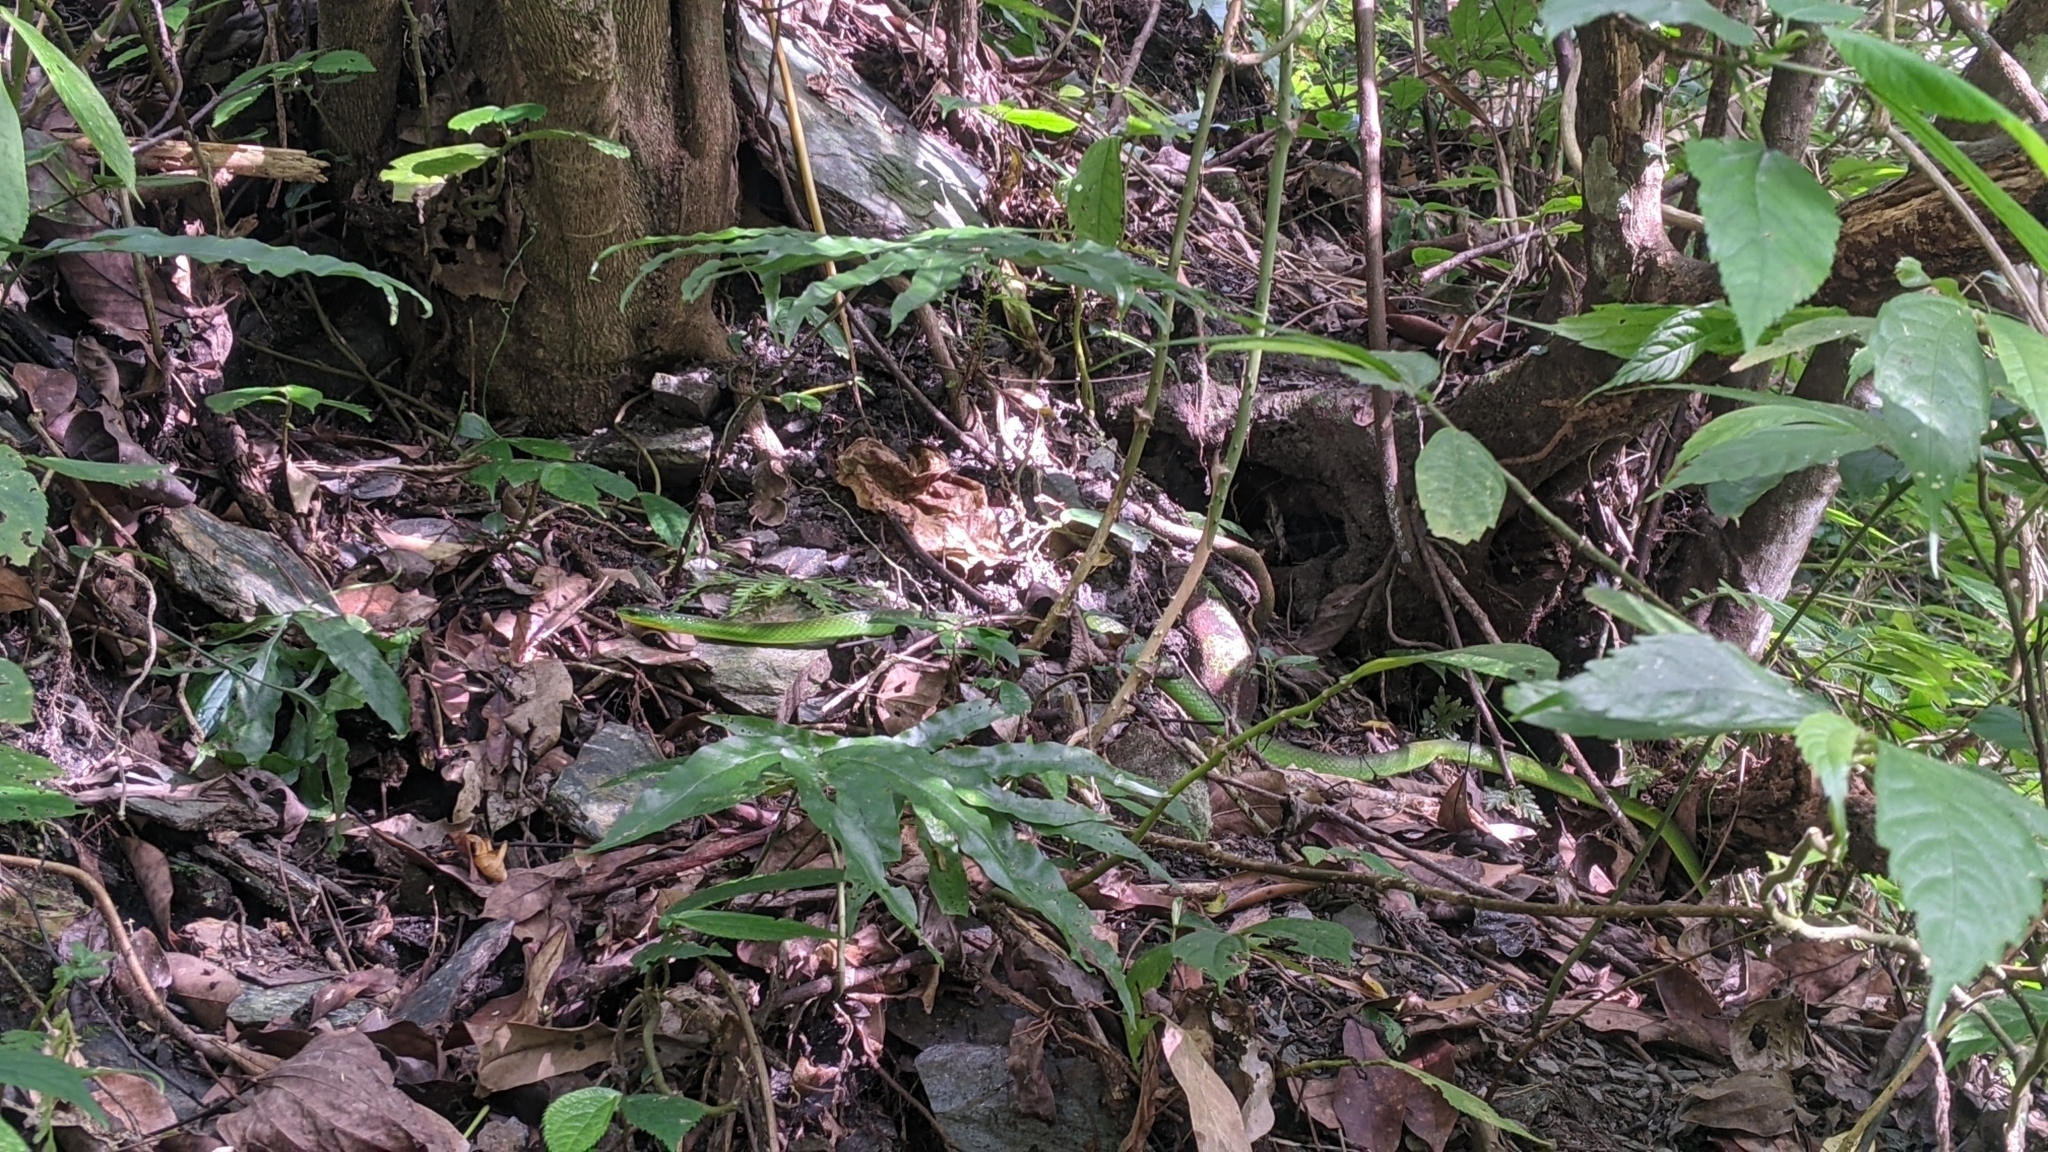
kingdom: Animalia
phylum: Chordata
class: Squamata
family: Colubridae
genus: Ptyas
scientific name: Ptyas major
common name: Chinese green snake
